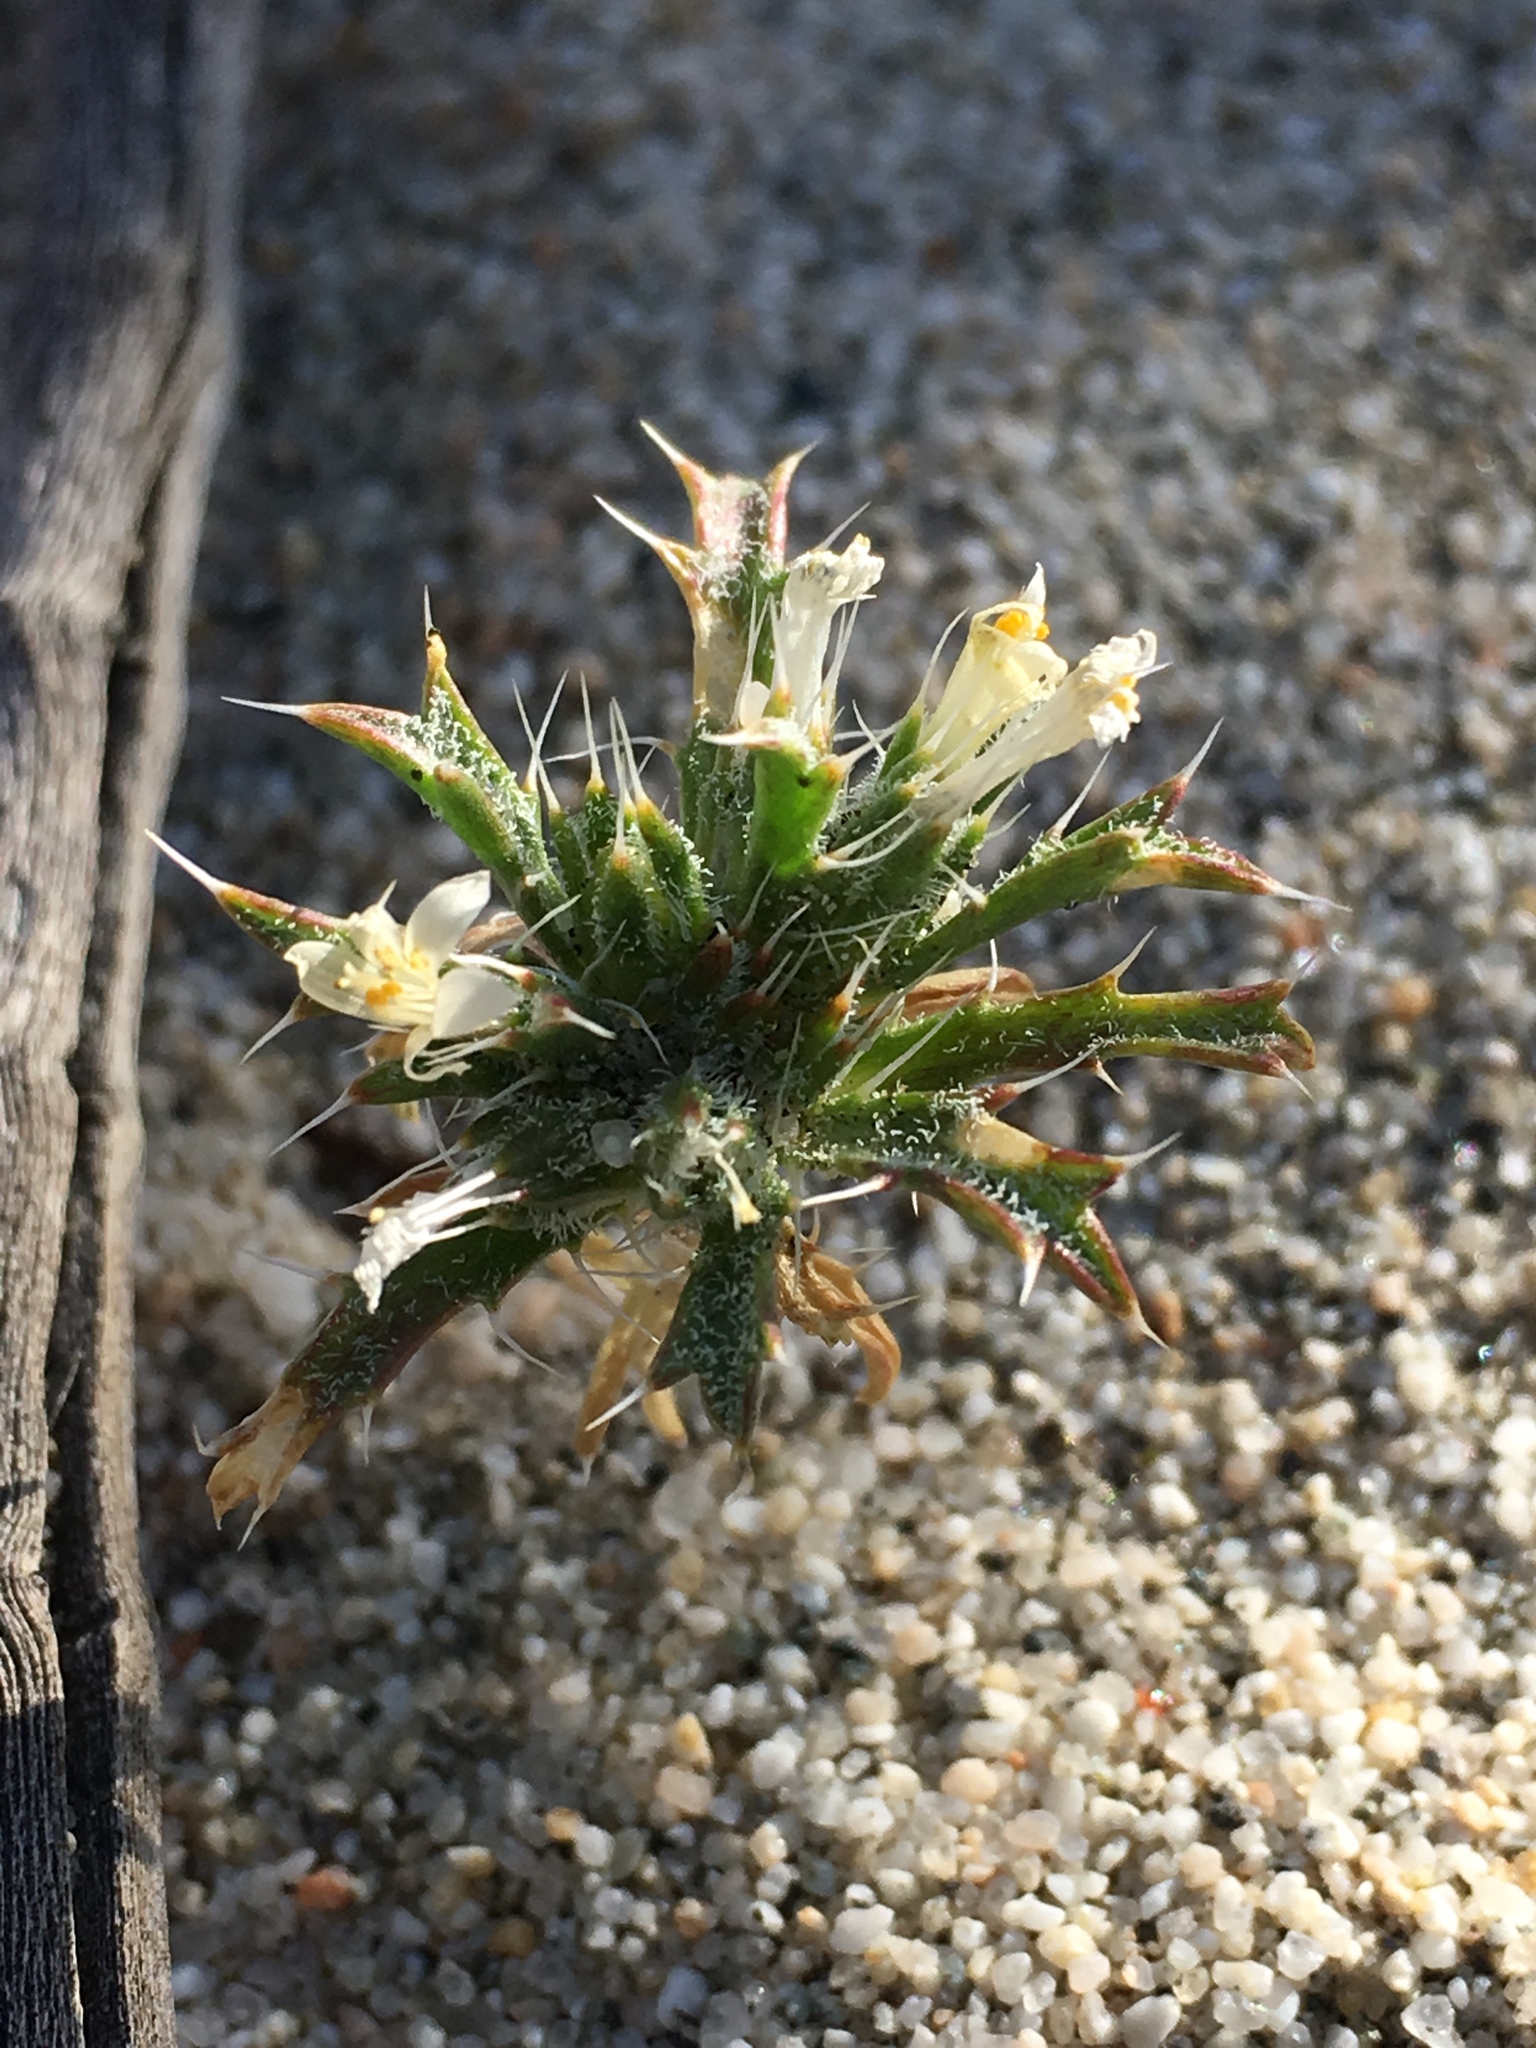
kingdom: Plantae
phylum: Tracheophyta
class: Magnoliopsida
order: Ericales
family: Polemoniaceae
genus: Loeseliastrum
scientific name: Loeseliastrum schottii
